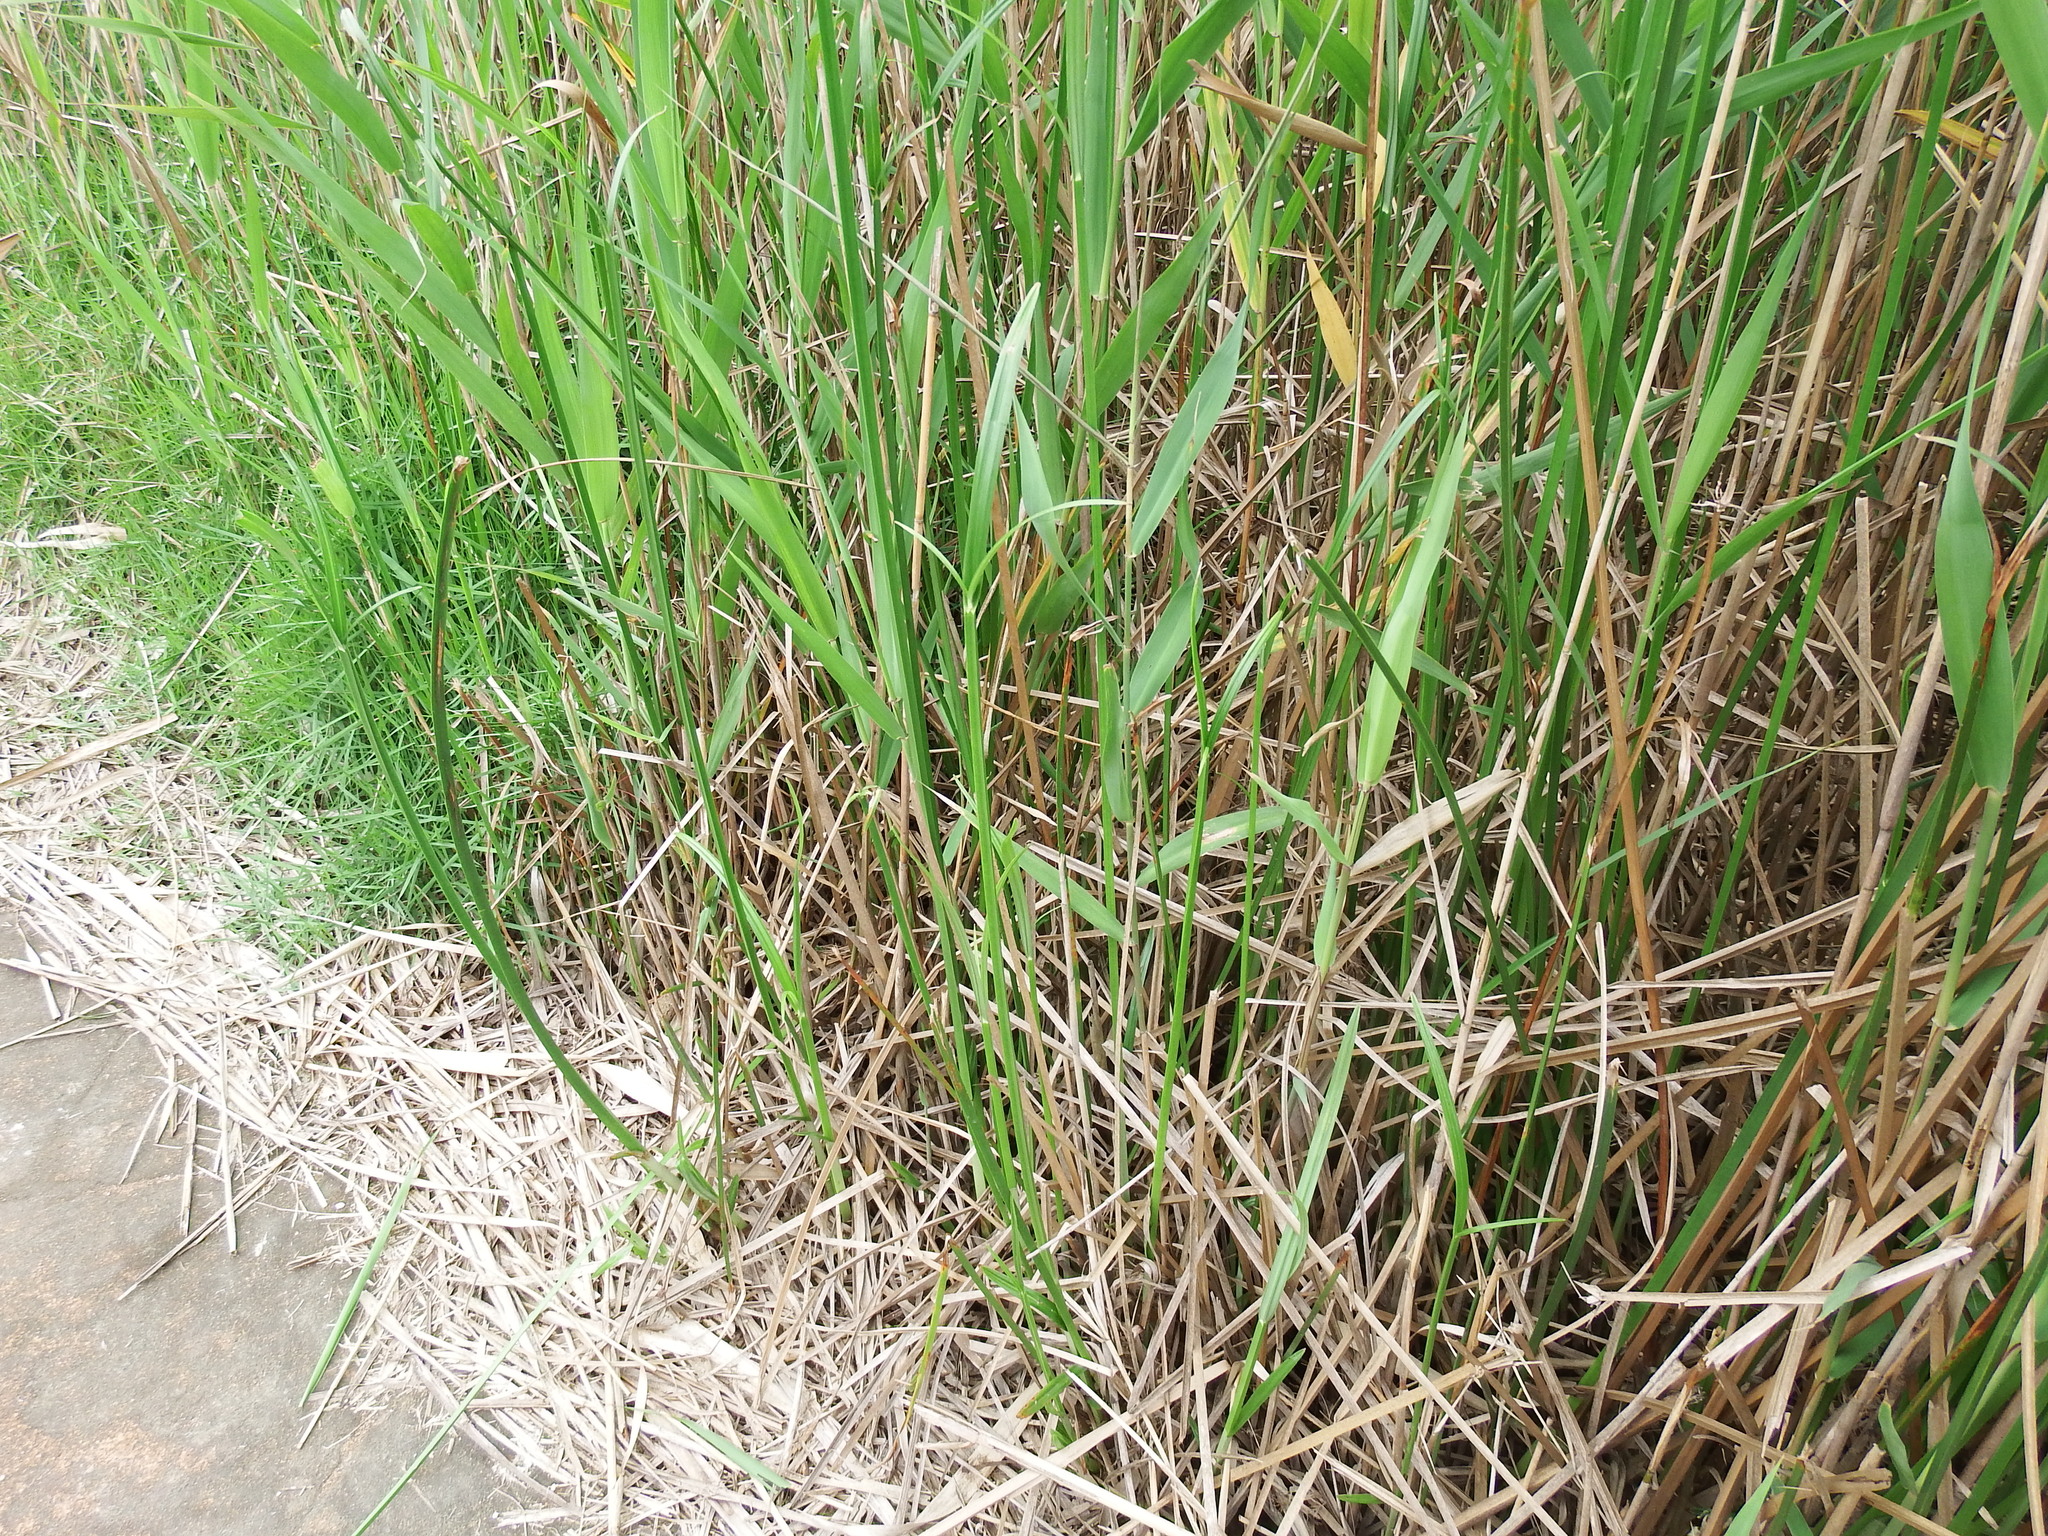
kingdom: Plantae
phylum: Tracheophyta
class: Liliopsida
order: Poales
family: Cyperaceae
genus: Cyperus
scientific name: Cyperus malaccensis
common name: Shichito matgrass
